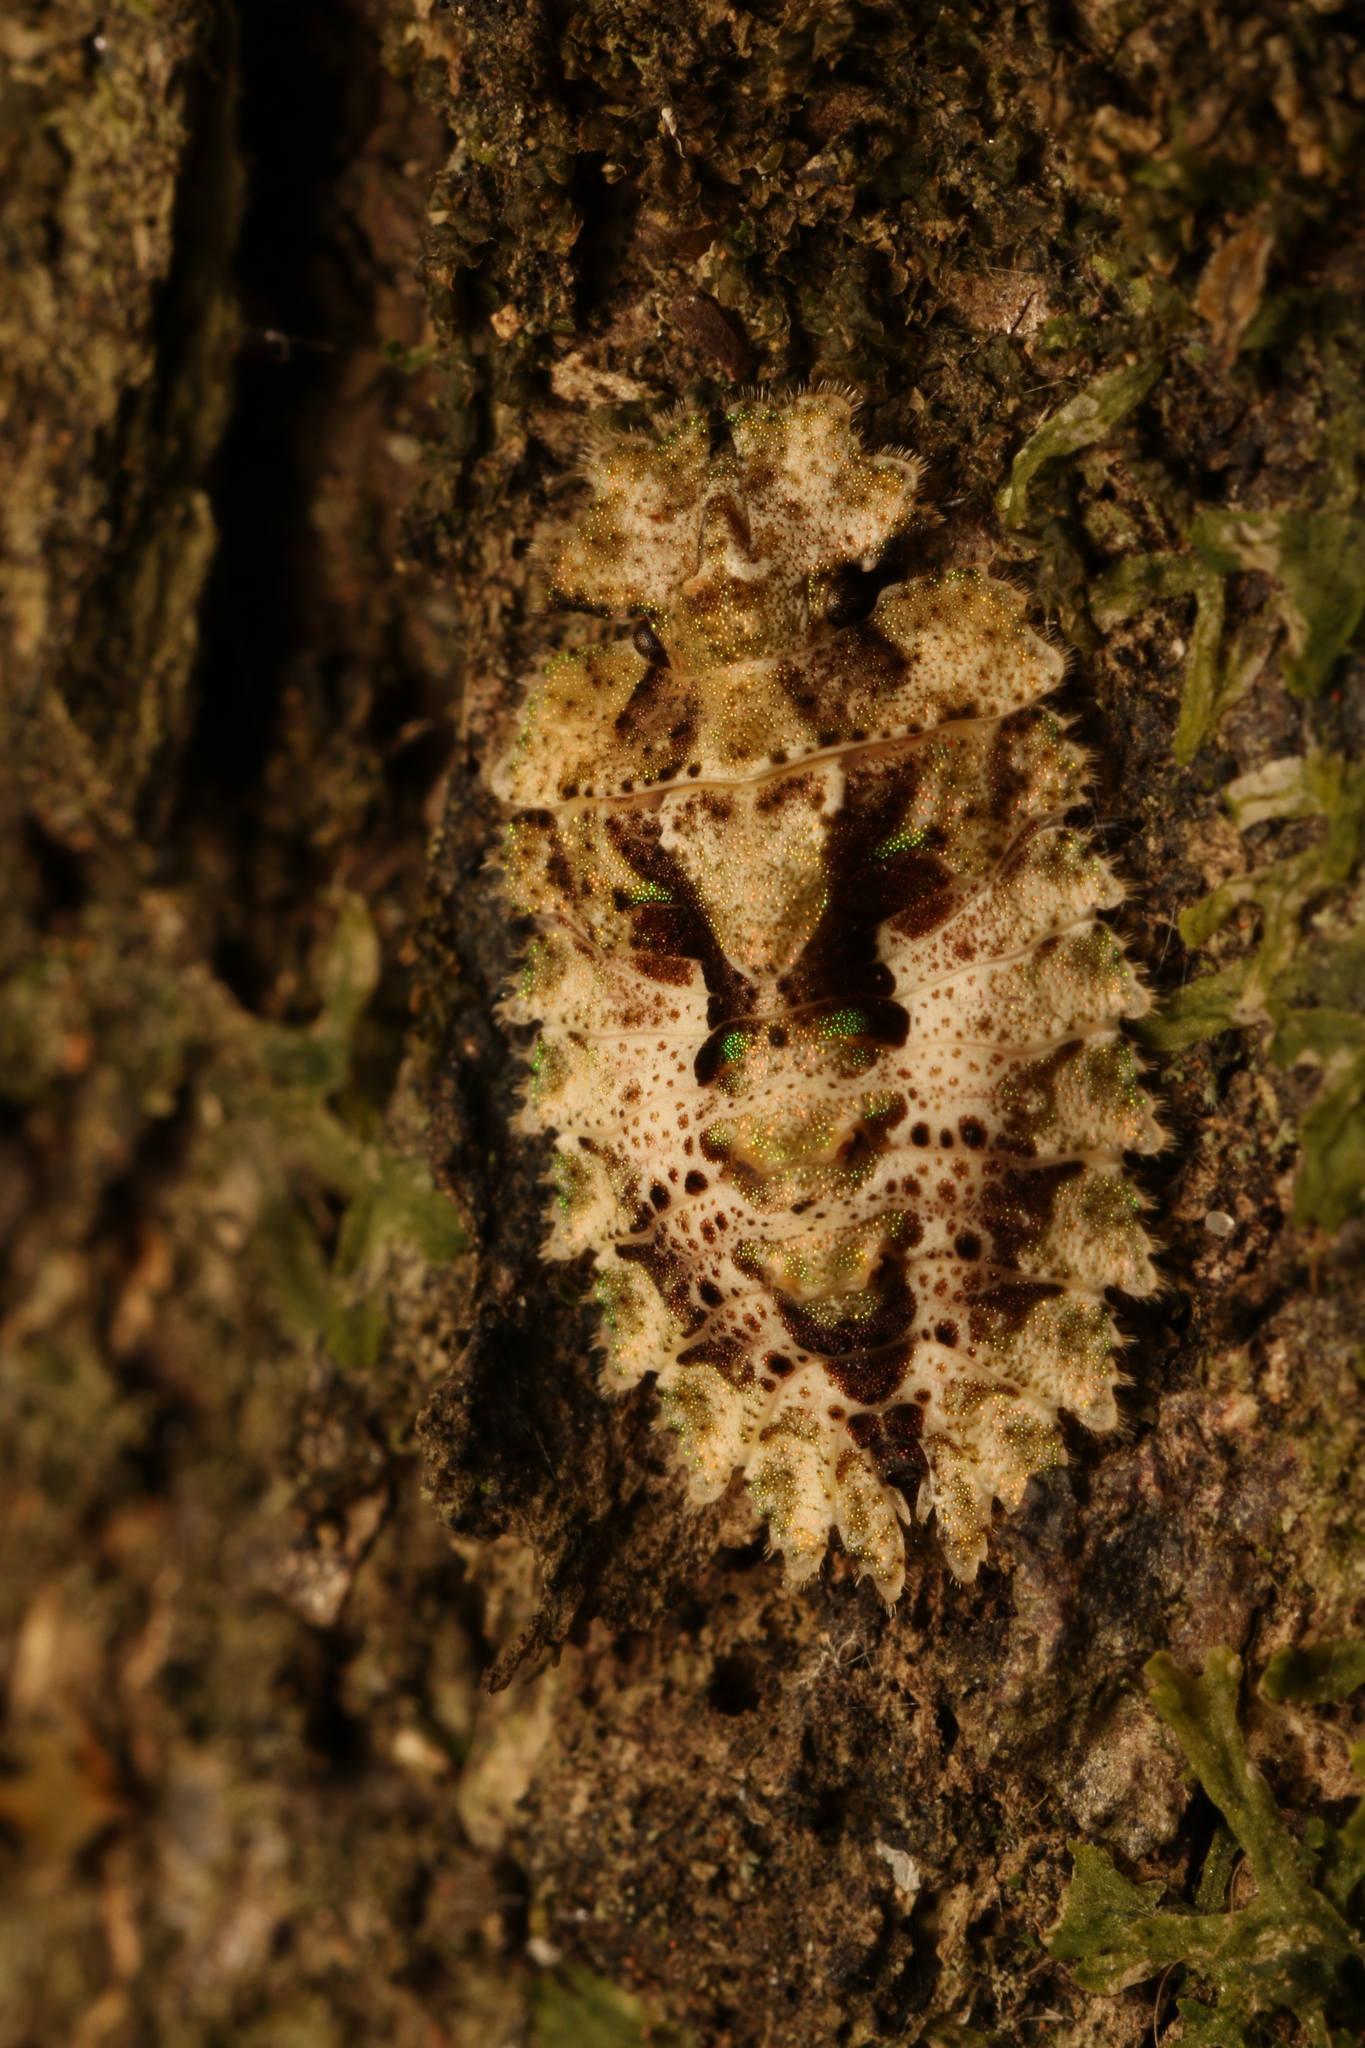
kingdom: Animalia
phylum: Arthropoda
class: Insecta
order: Hemiptera
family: Phloeidae
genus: Phloeophana
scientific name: Phloeophana longirostris
